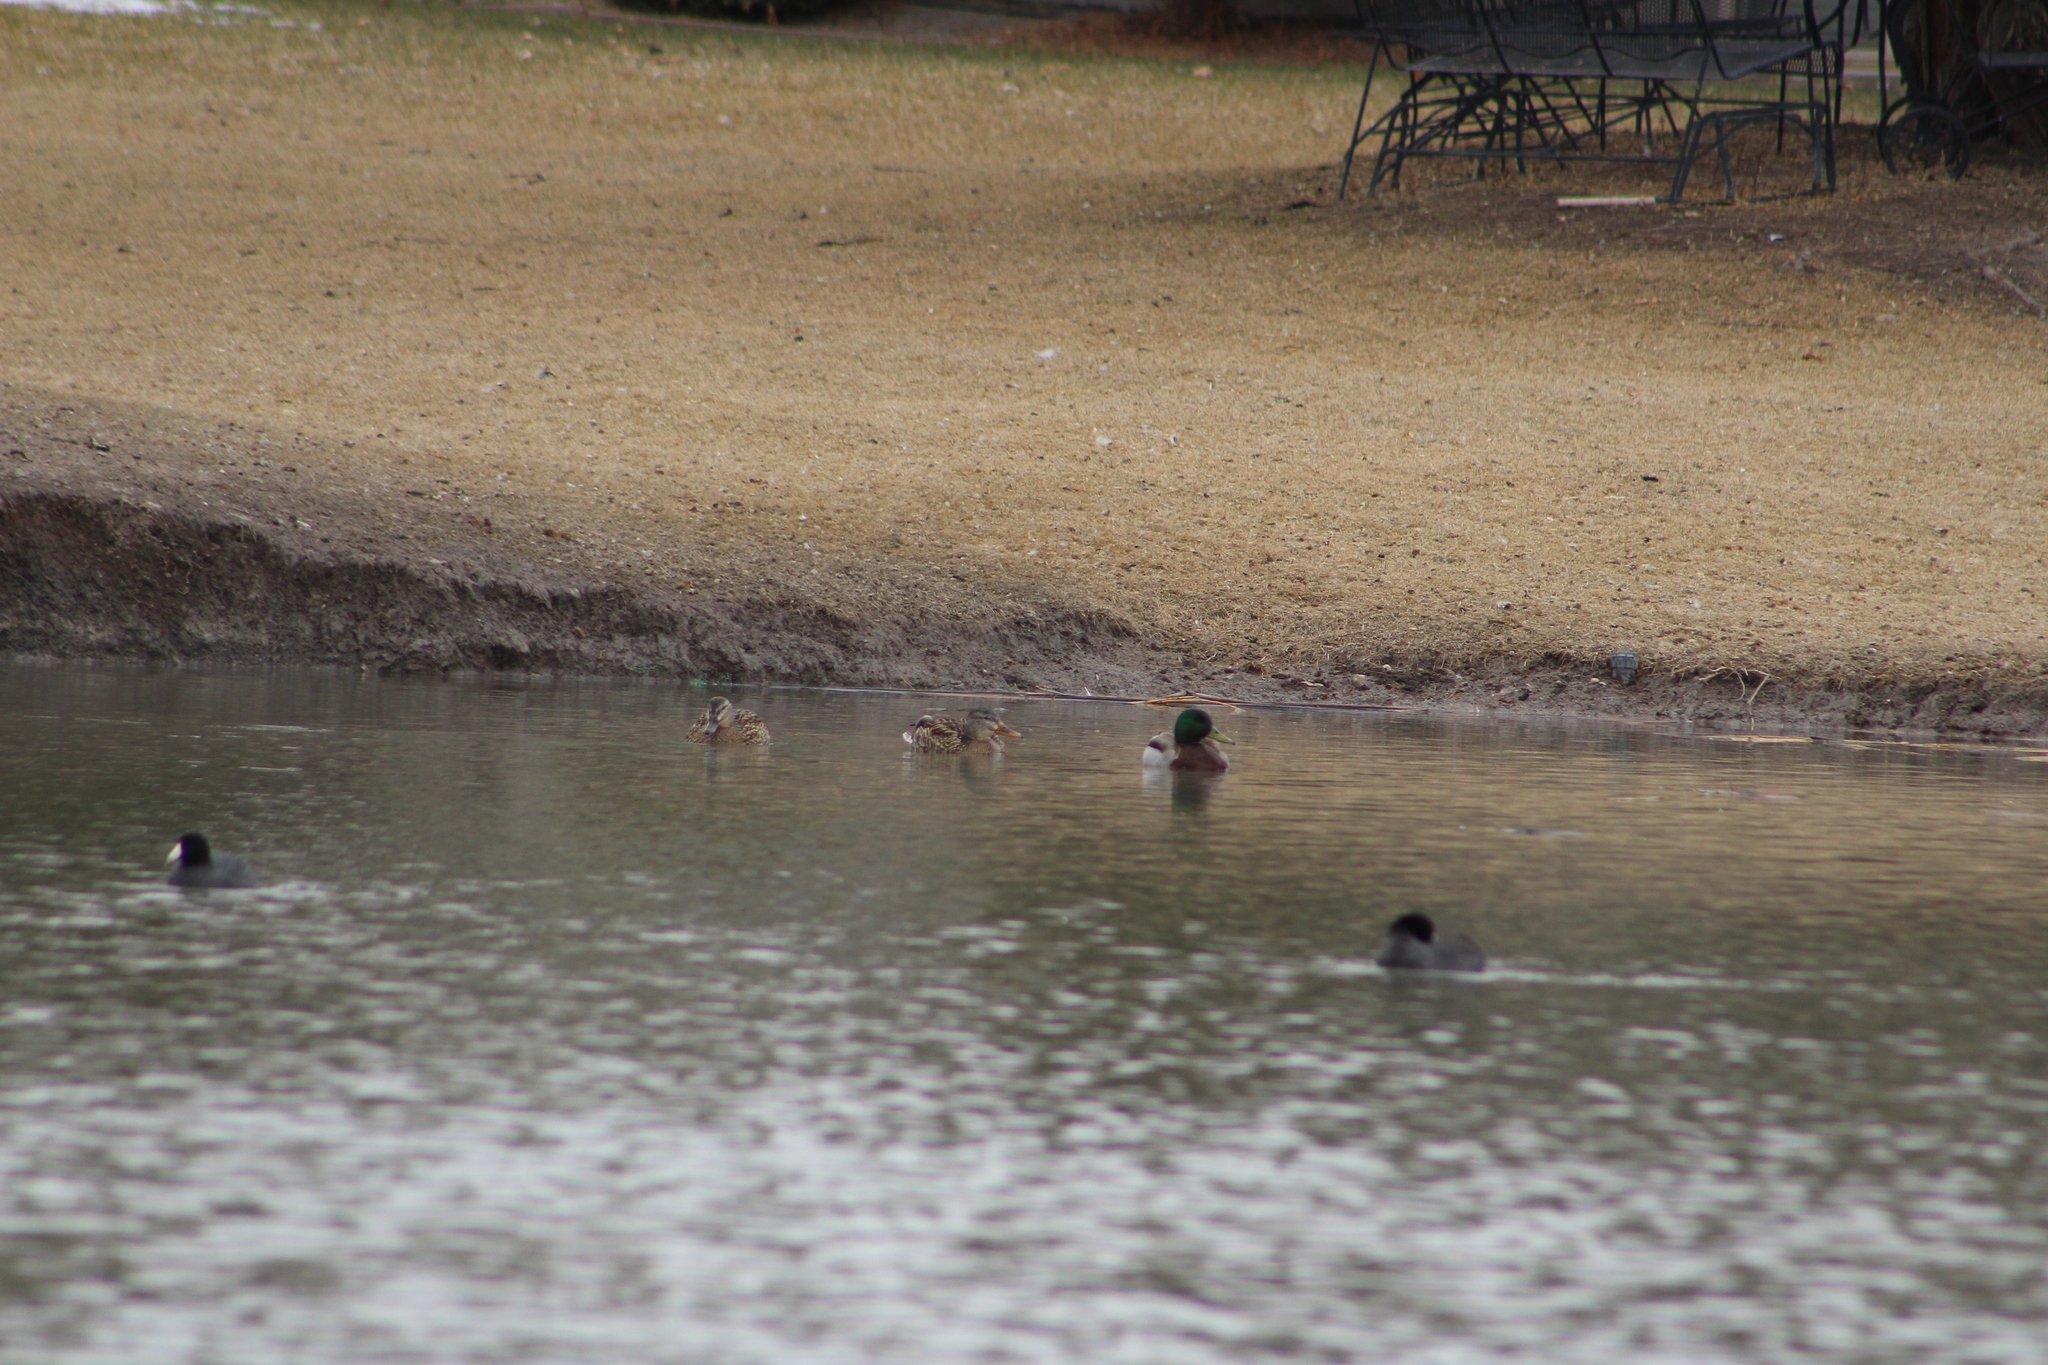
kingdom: Animalia
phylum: Chordata
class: Aves
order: Anseriformes
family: Anatidae
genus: Anas
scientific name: Anas platyrhynchos
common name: Mallard
